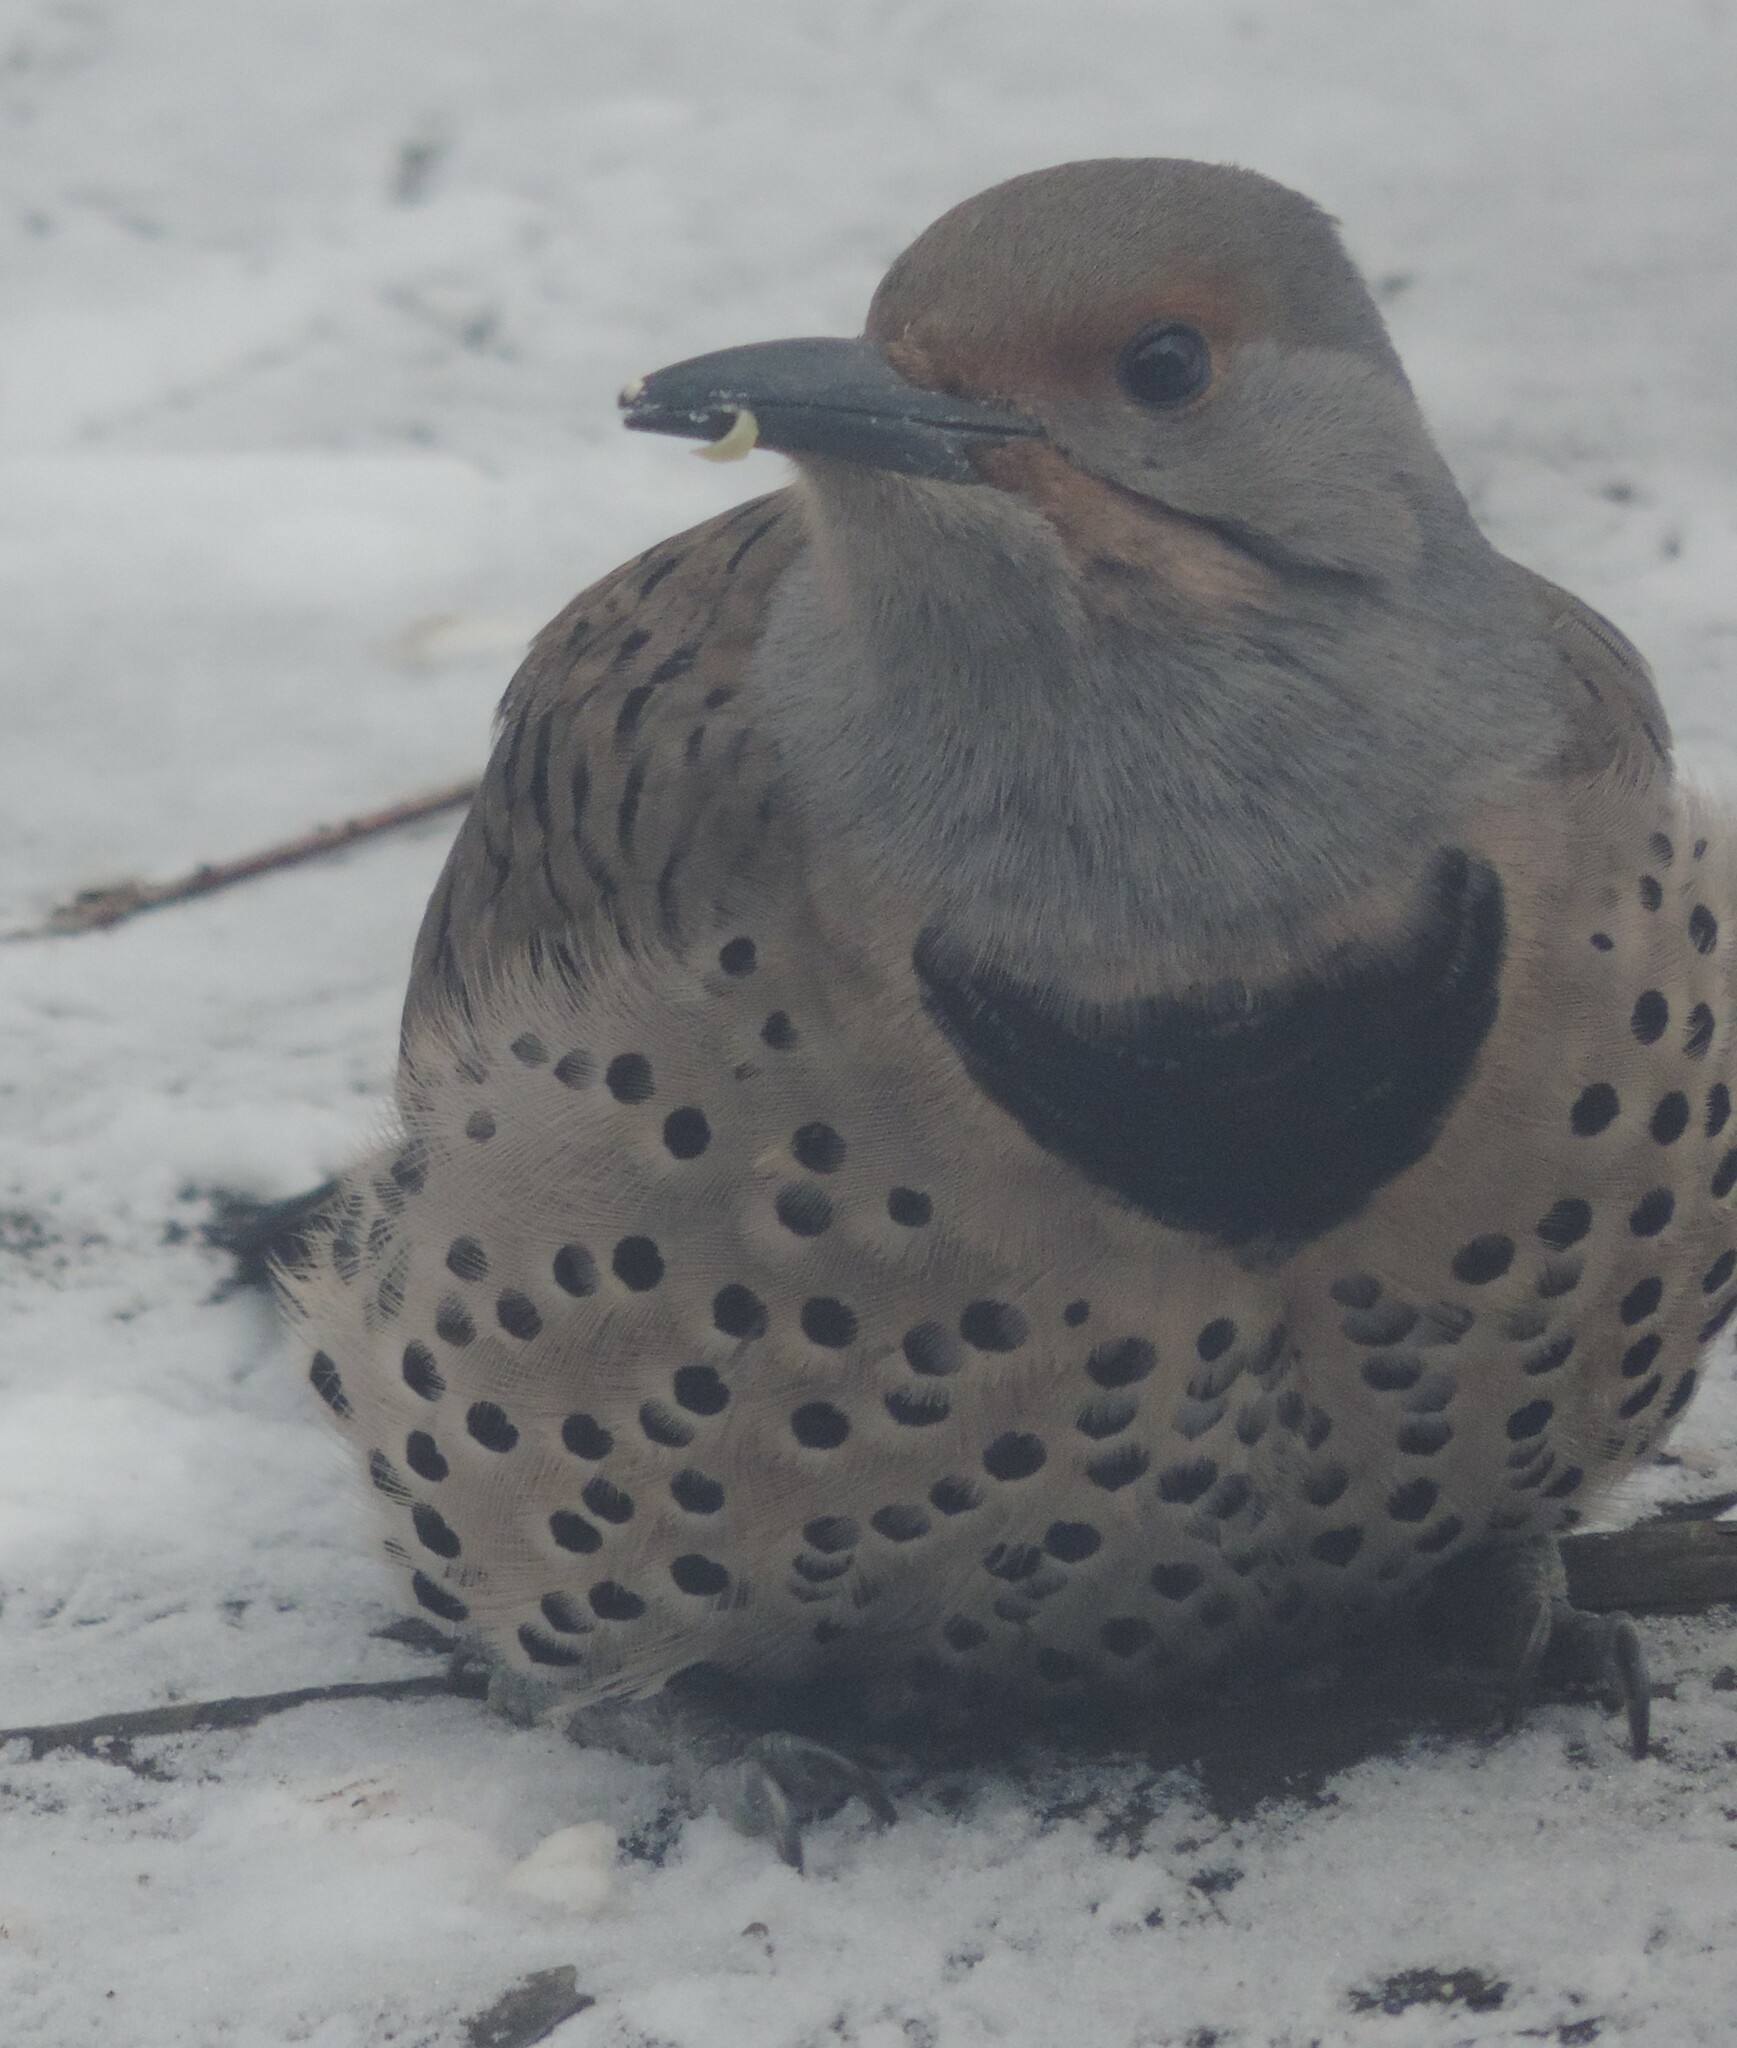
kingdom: Animalia
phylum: Chordata
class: Aves
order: Piciformes
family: Picidae
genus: Colaptes
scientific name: Colaptes auratus
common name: Northern flicker
